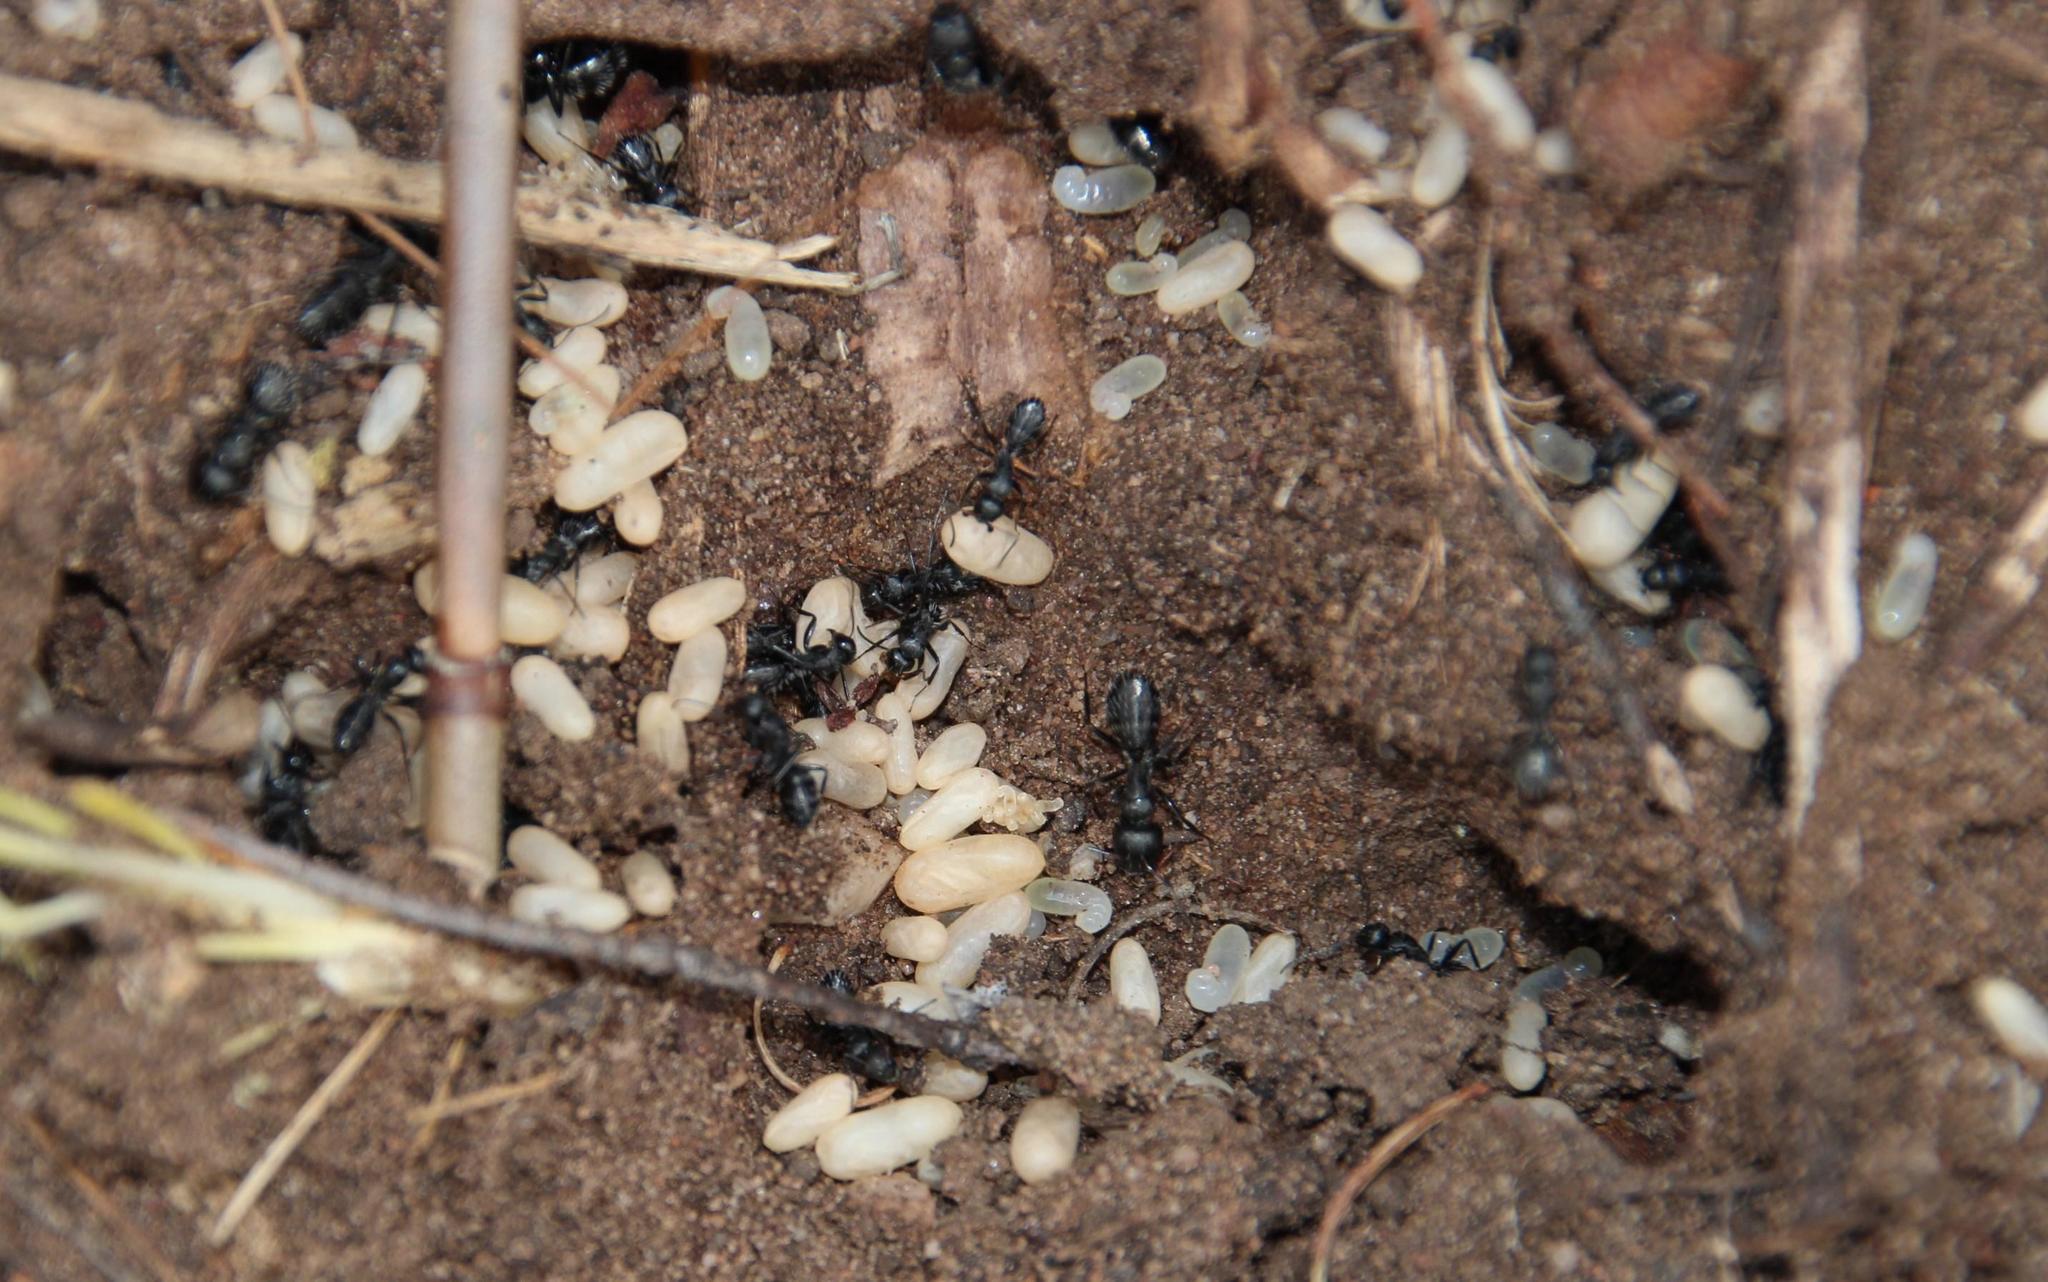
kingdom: Animalia
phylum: Arthropoda
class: Insecta
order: Hymenoptera
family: Formicidae
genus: Camponotus
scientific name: Camponotus niveosetosus
